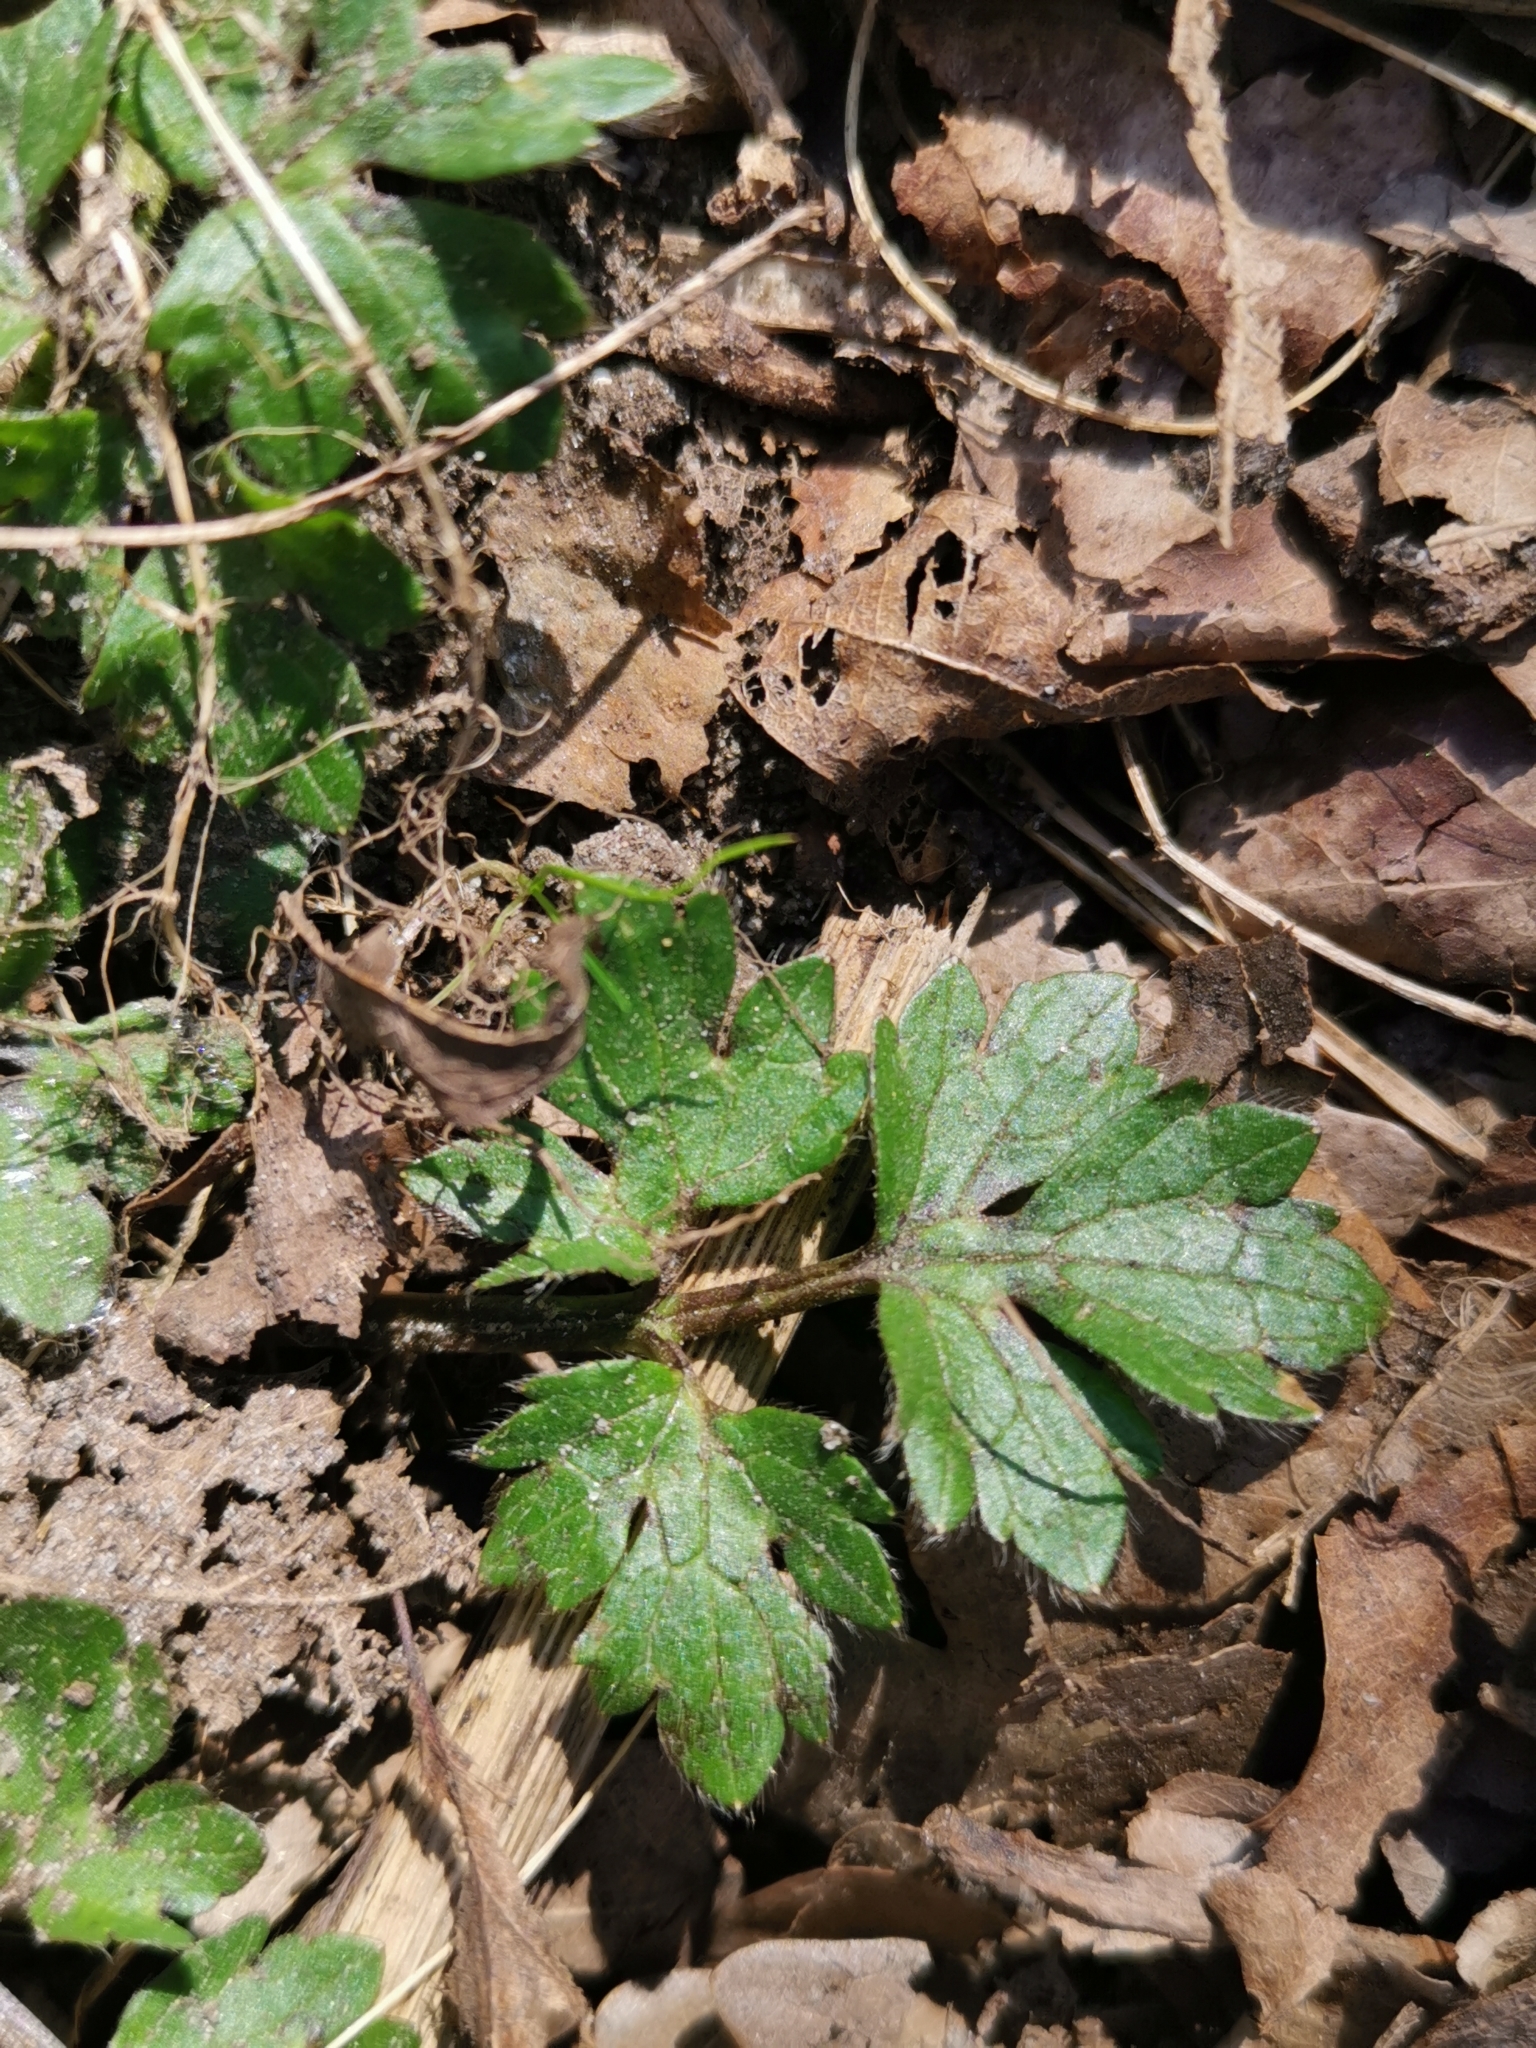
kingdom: Plantae
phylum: Tracheophyta
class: Magnoliopsida
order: Ranunculales
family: Ranunculaceae
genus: Ranunculus
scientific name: Ranunculus repens
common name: Creeping buttercup
